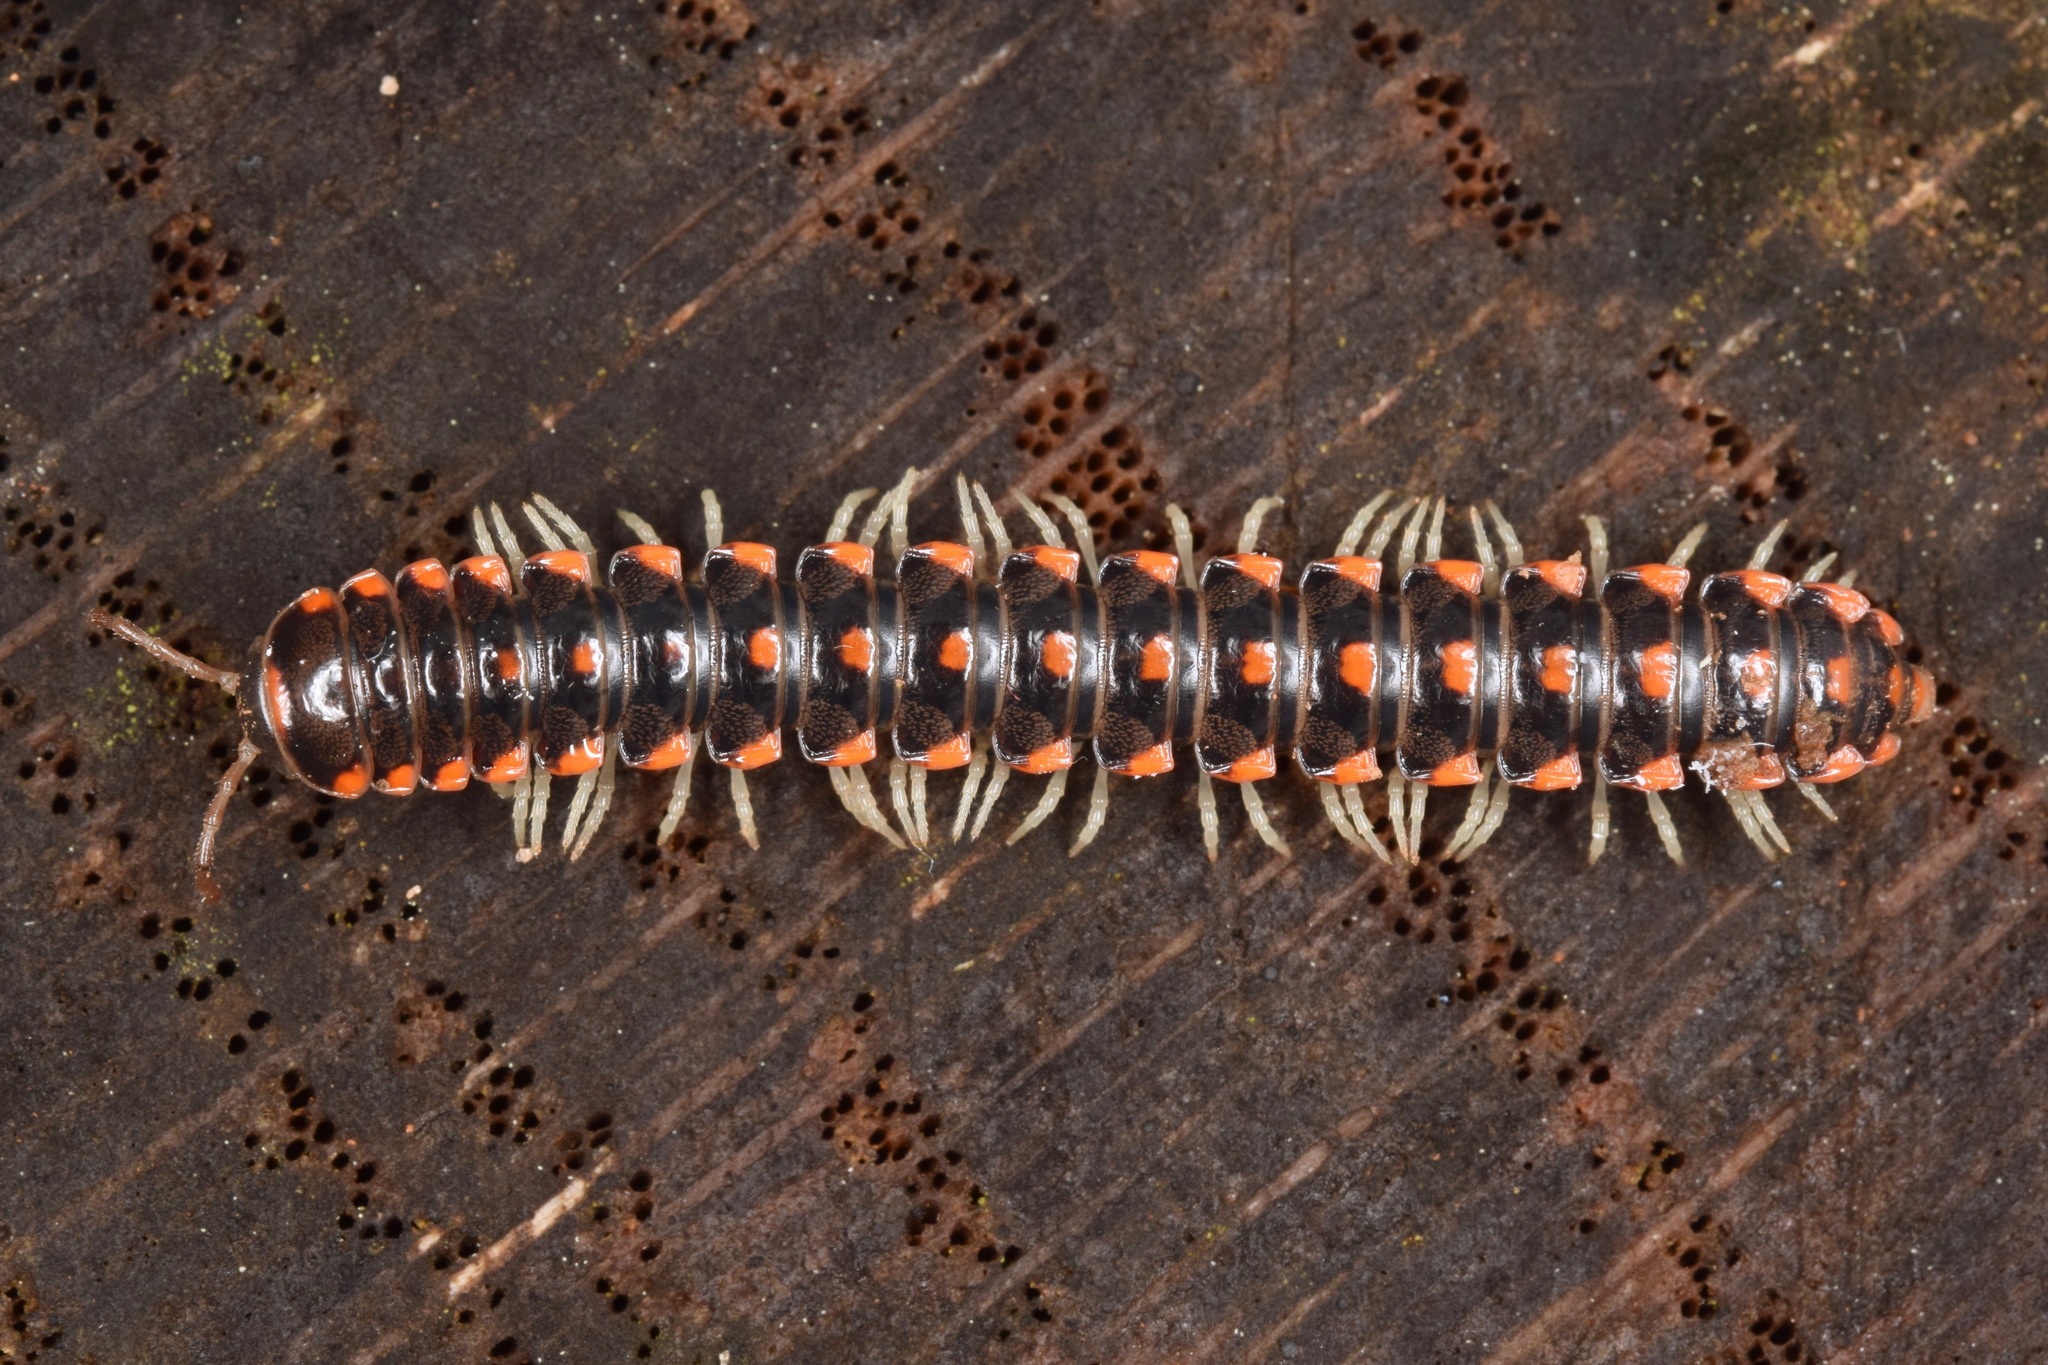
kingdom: Animalia
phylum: Arthropoda
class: Diplopoda
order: Polydesmida
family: Xystodesmidae
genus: Euryurus
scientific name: Euryurus maculatus
